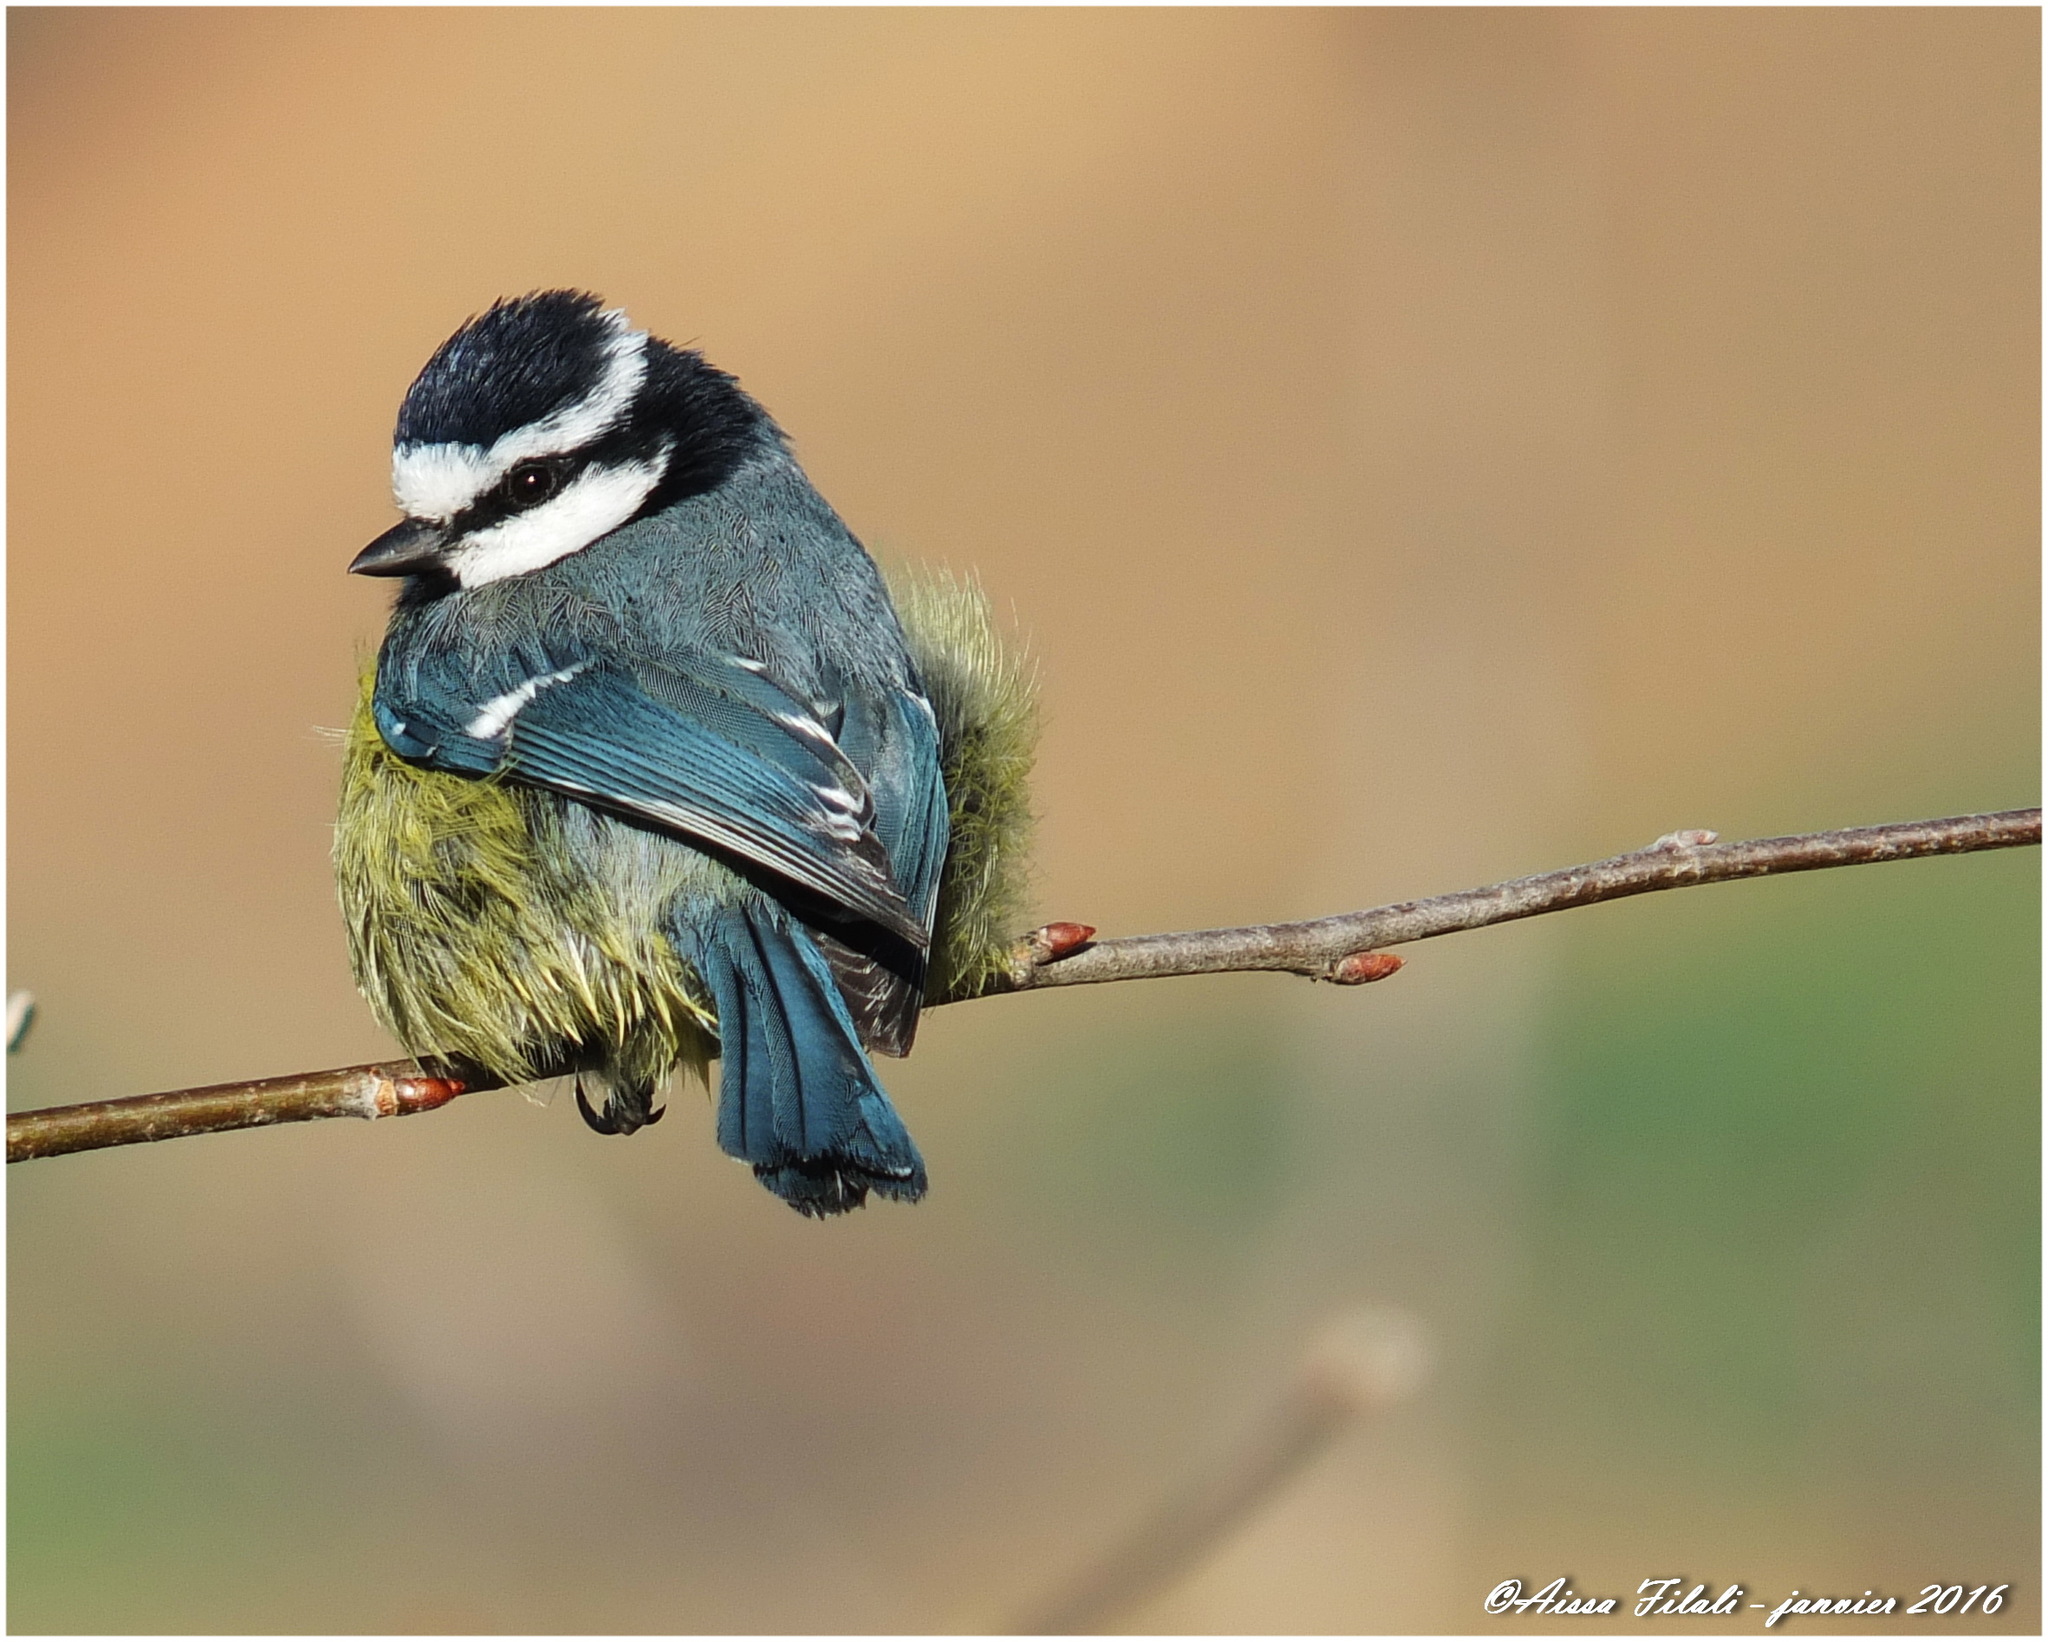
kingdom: Animalia
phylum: Chordata
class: Aves
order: Passeriformes
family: Paridae
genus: Cyanistes
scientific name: Cyanistes teneriffae
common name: African blue tit
